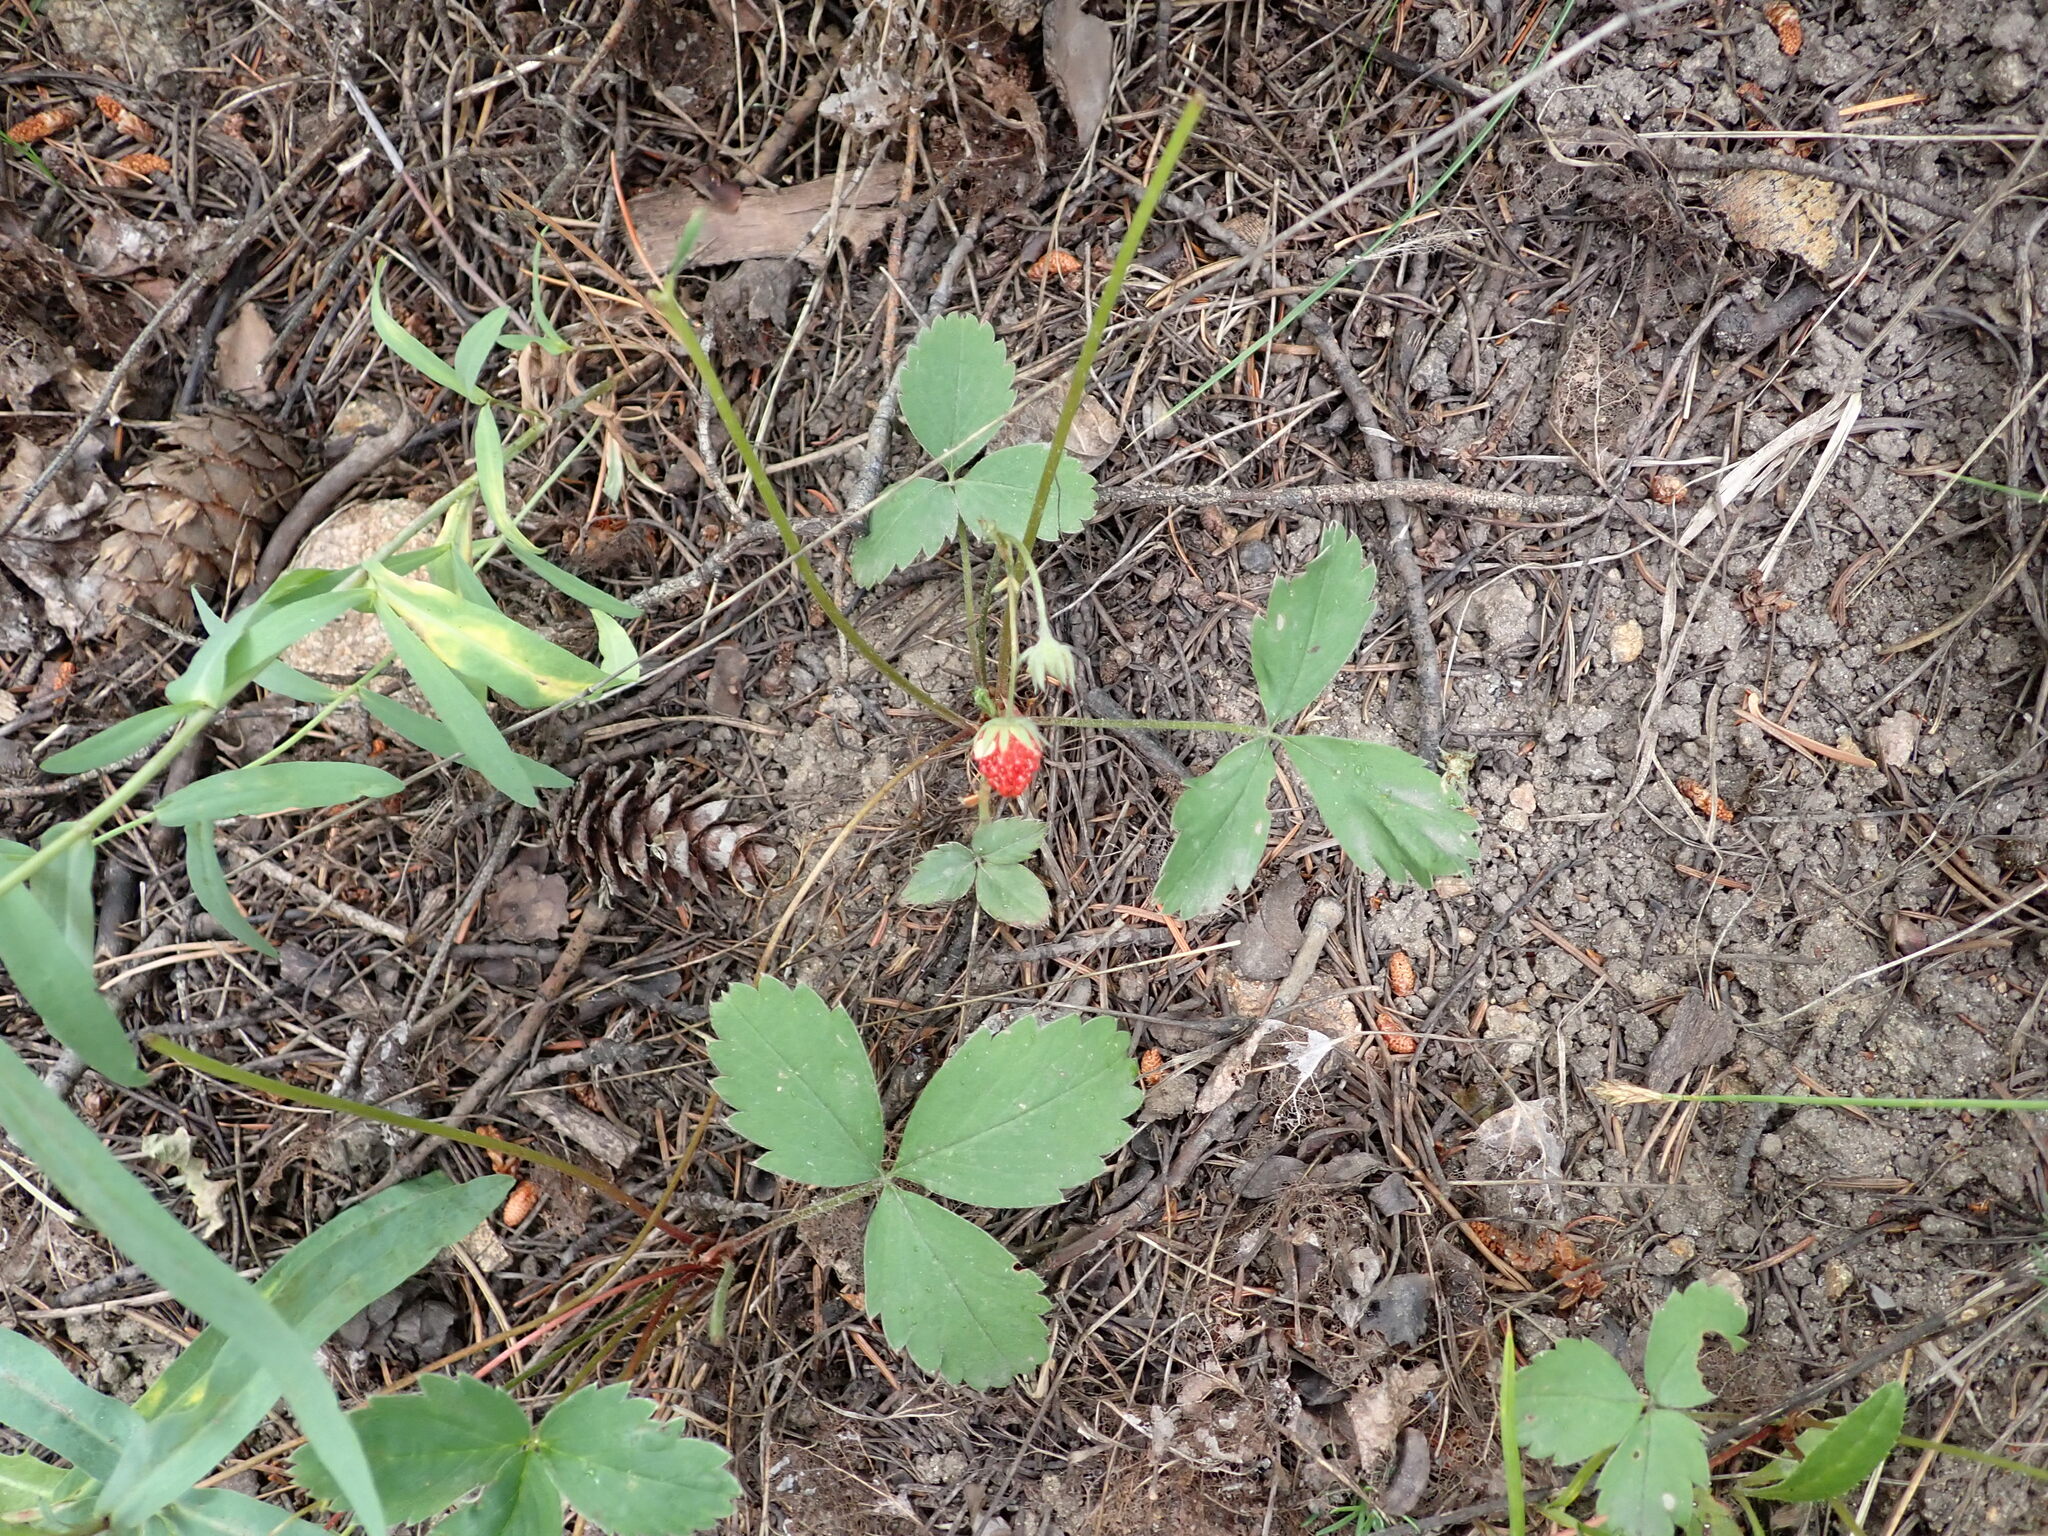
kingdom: Plantae
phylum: Tracheophyta
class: Magnoliopsida
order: Rosales
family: Rosaceae
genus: Fragaria
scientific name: Fragaria virginiana
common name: Thickleaved wild strawberry
